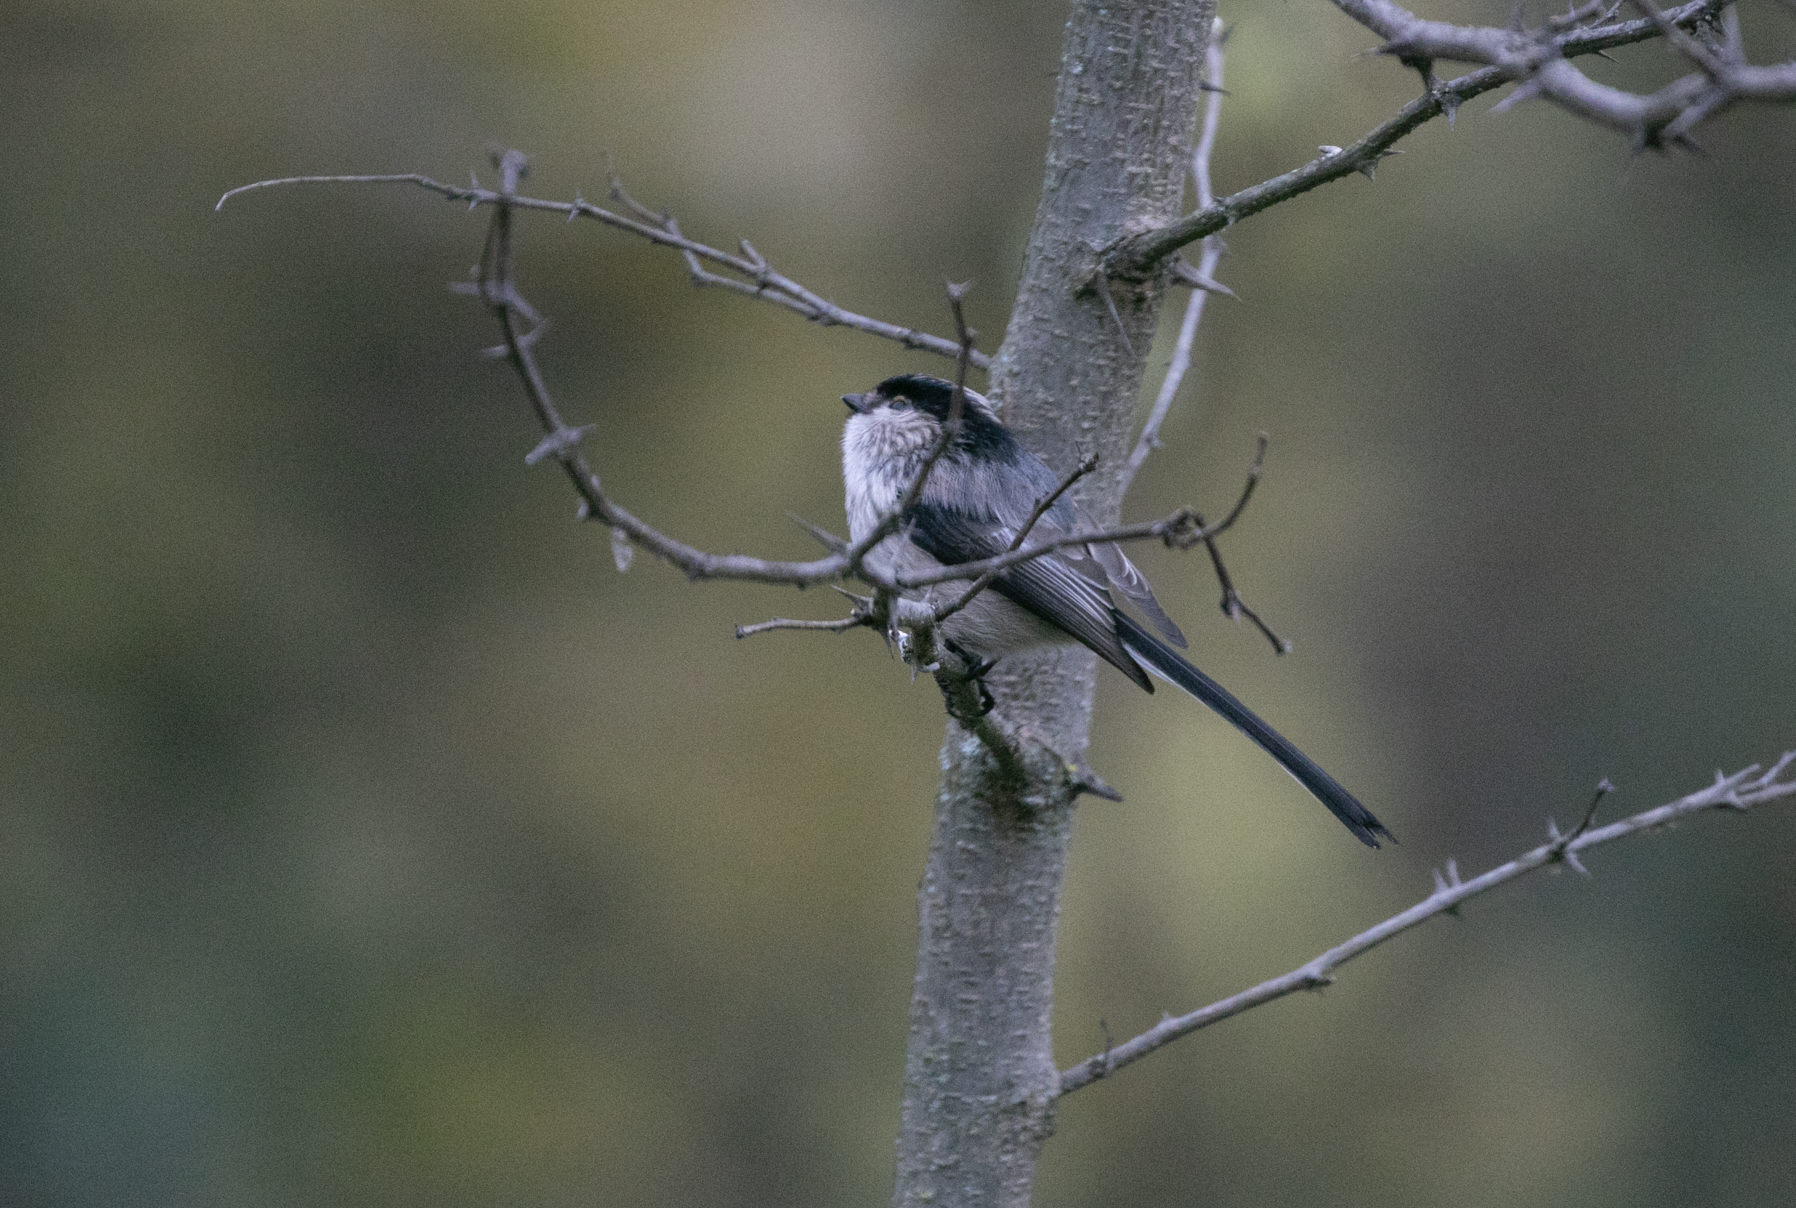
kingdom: Animalia
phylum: Chordata
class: Aves
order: Passeriformes
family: Aegithalidae
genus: Aegithalos
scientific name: Aegithalos caudatus
